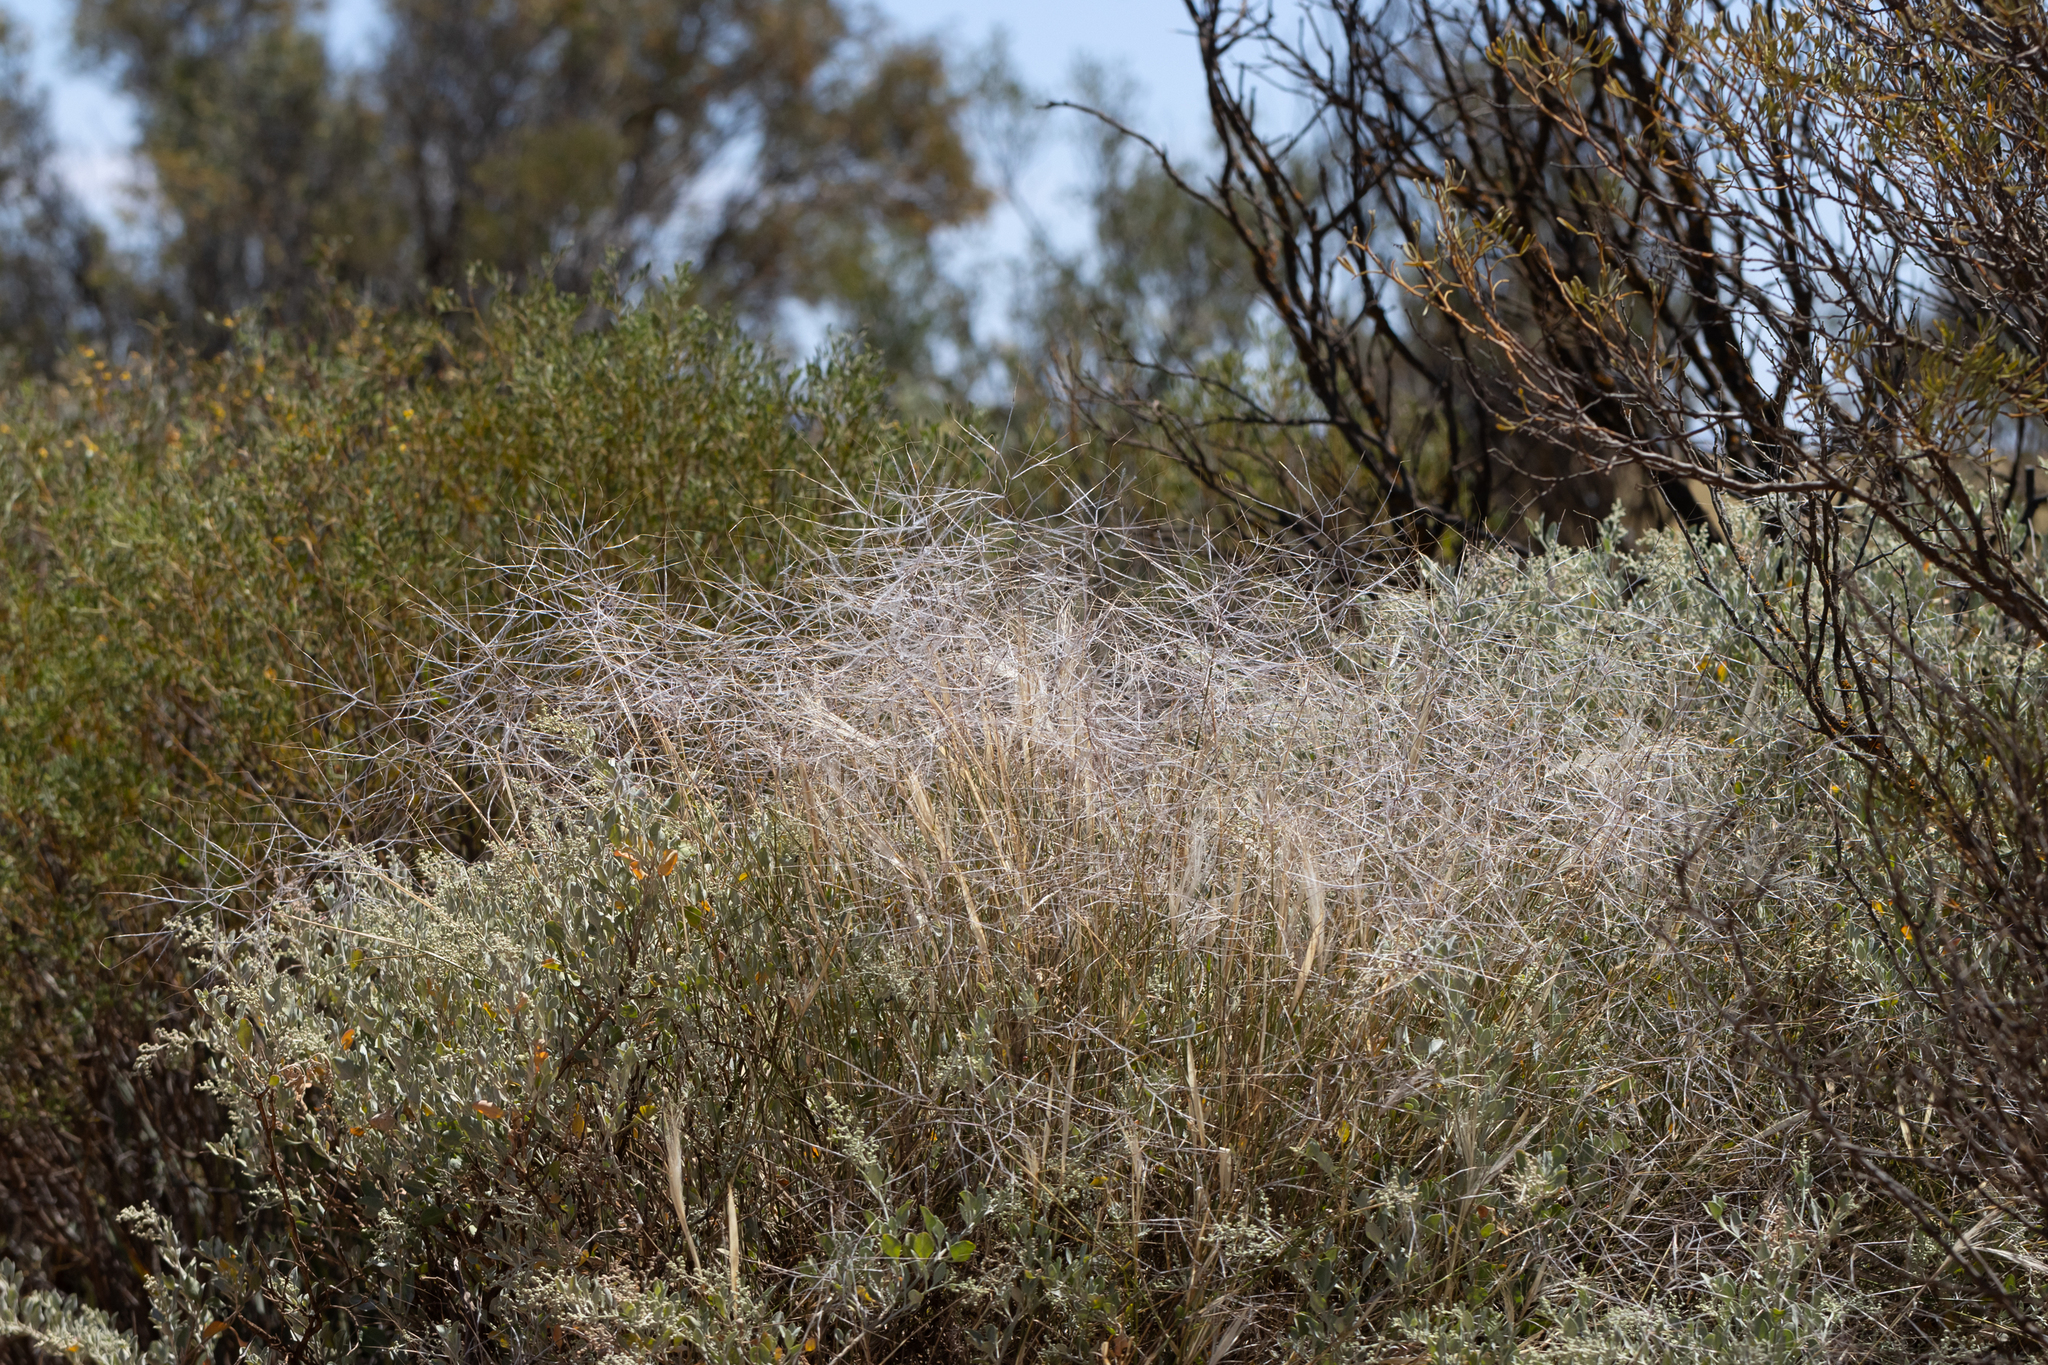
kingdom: Plantae
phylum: Tracheophyta
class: Liliopsida
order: Poales
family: Poaceae
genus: Austrostipa
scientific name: Austrostipa elegantissima
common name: Feather spear grass
